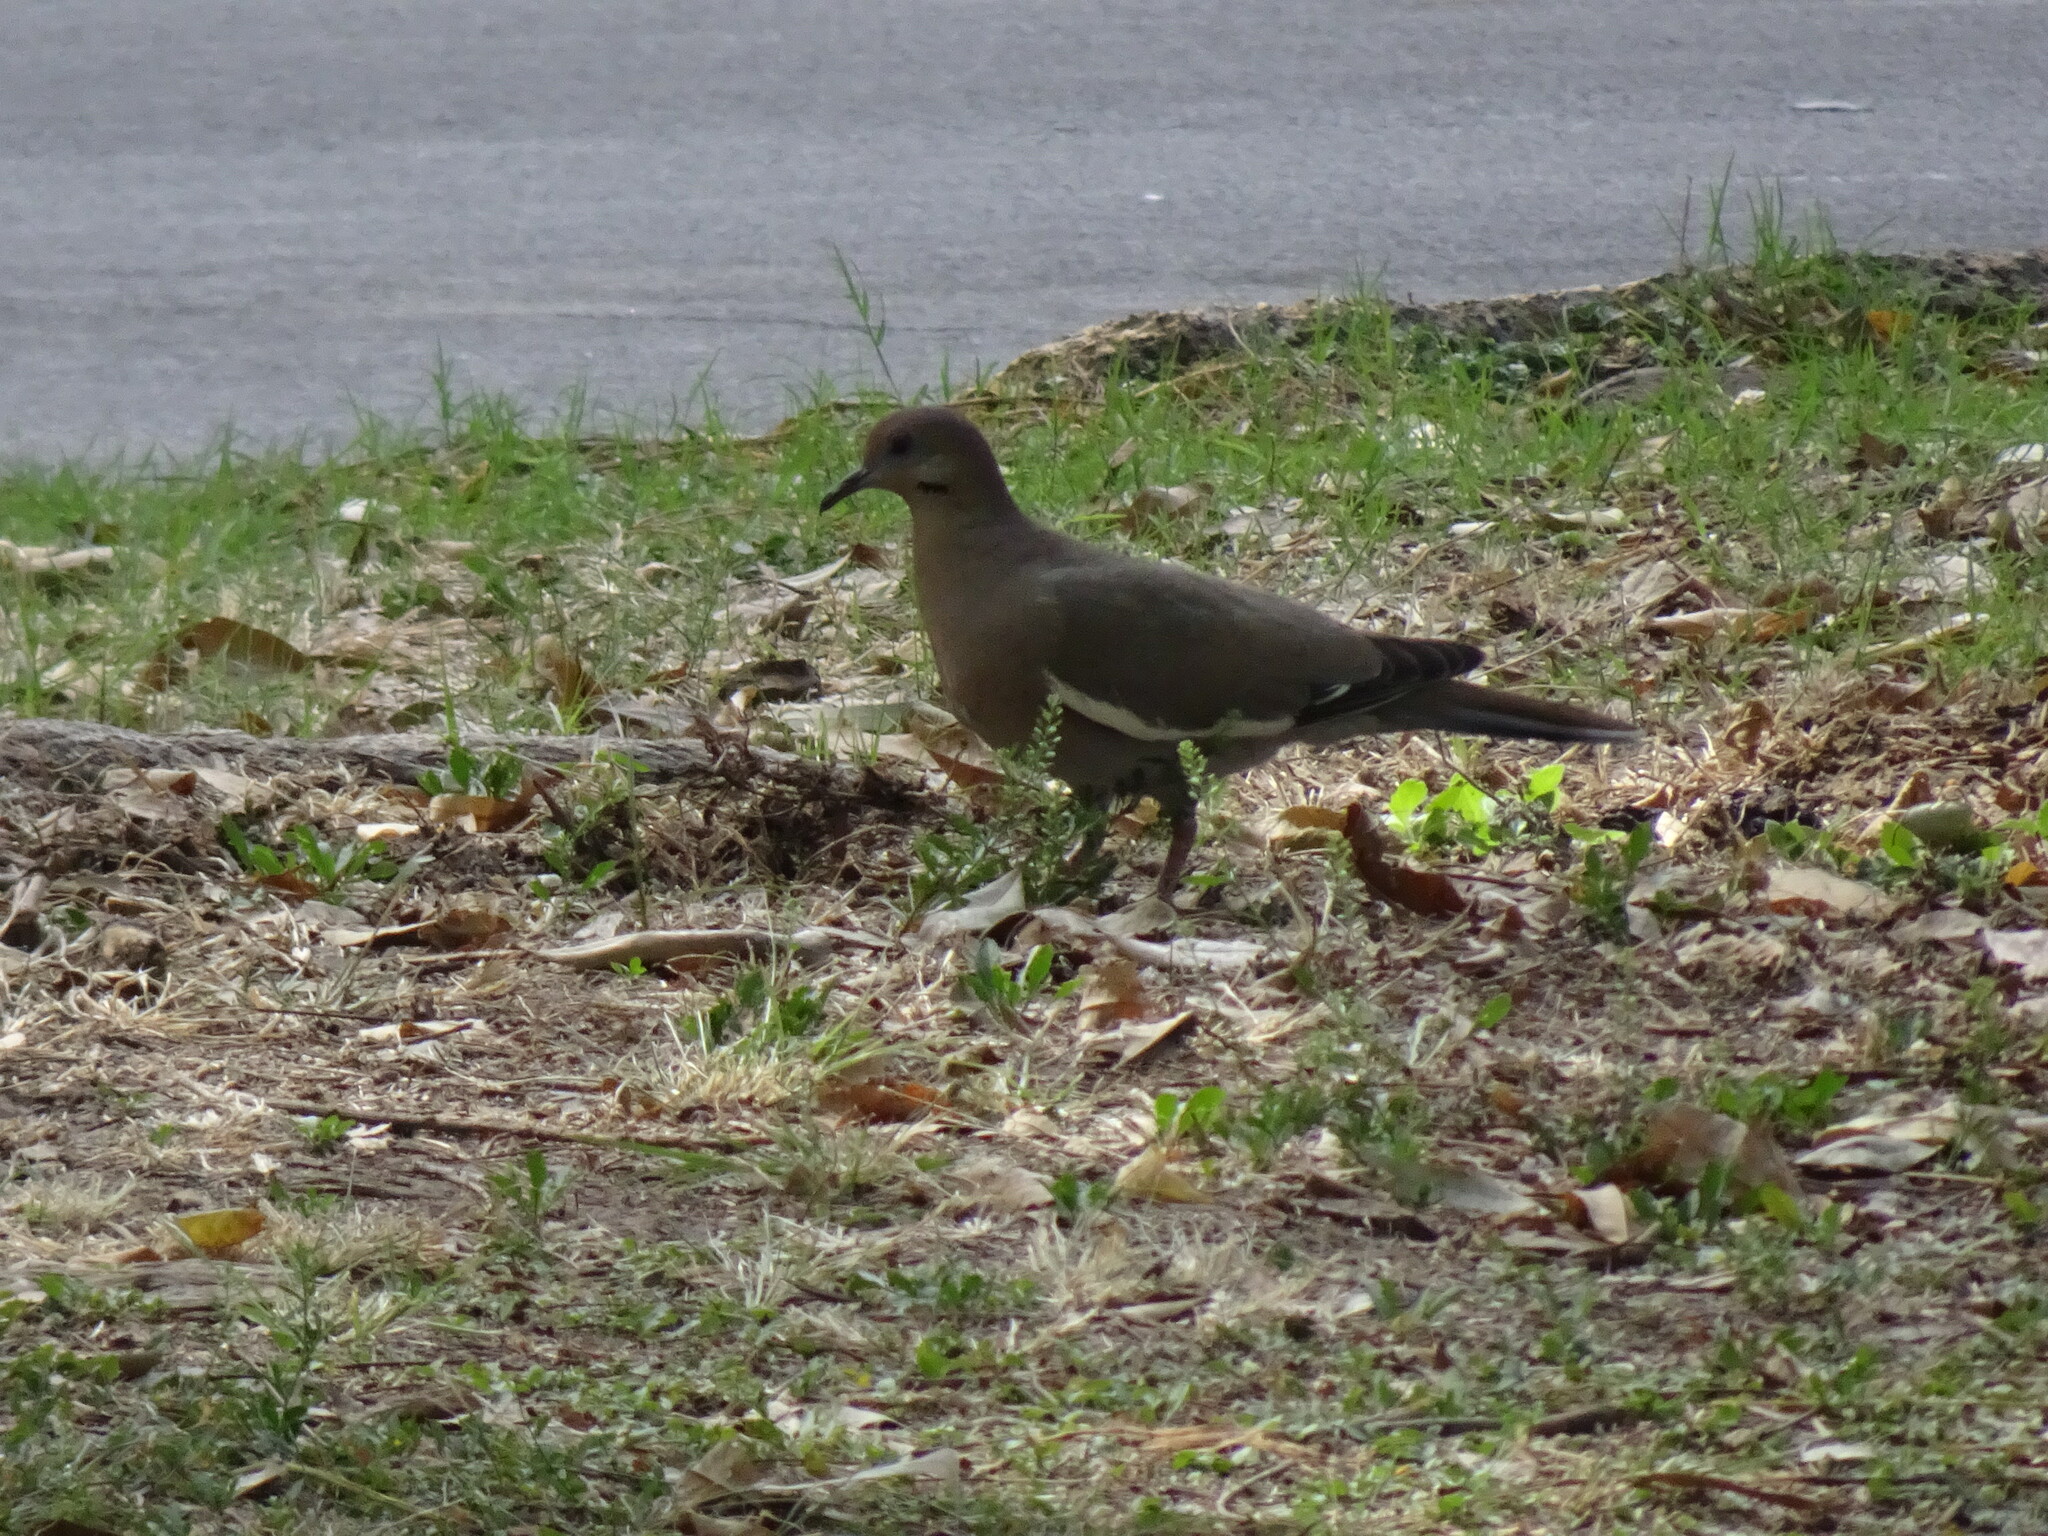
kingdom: Animalia
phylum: Chordata
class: Aves
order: Columbiformes
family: Columbidae
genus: Zenaida
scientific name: Zenaida asiatica
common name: White-winged dove
